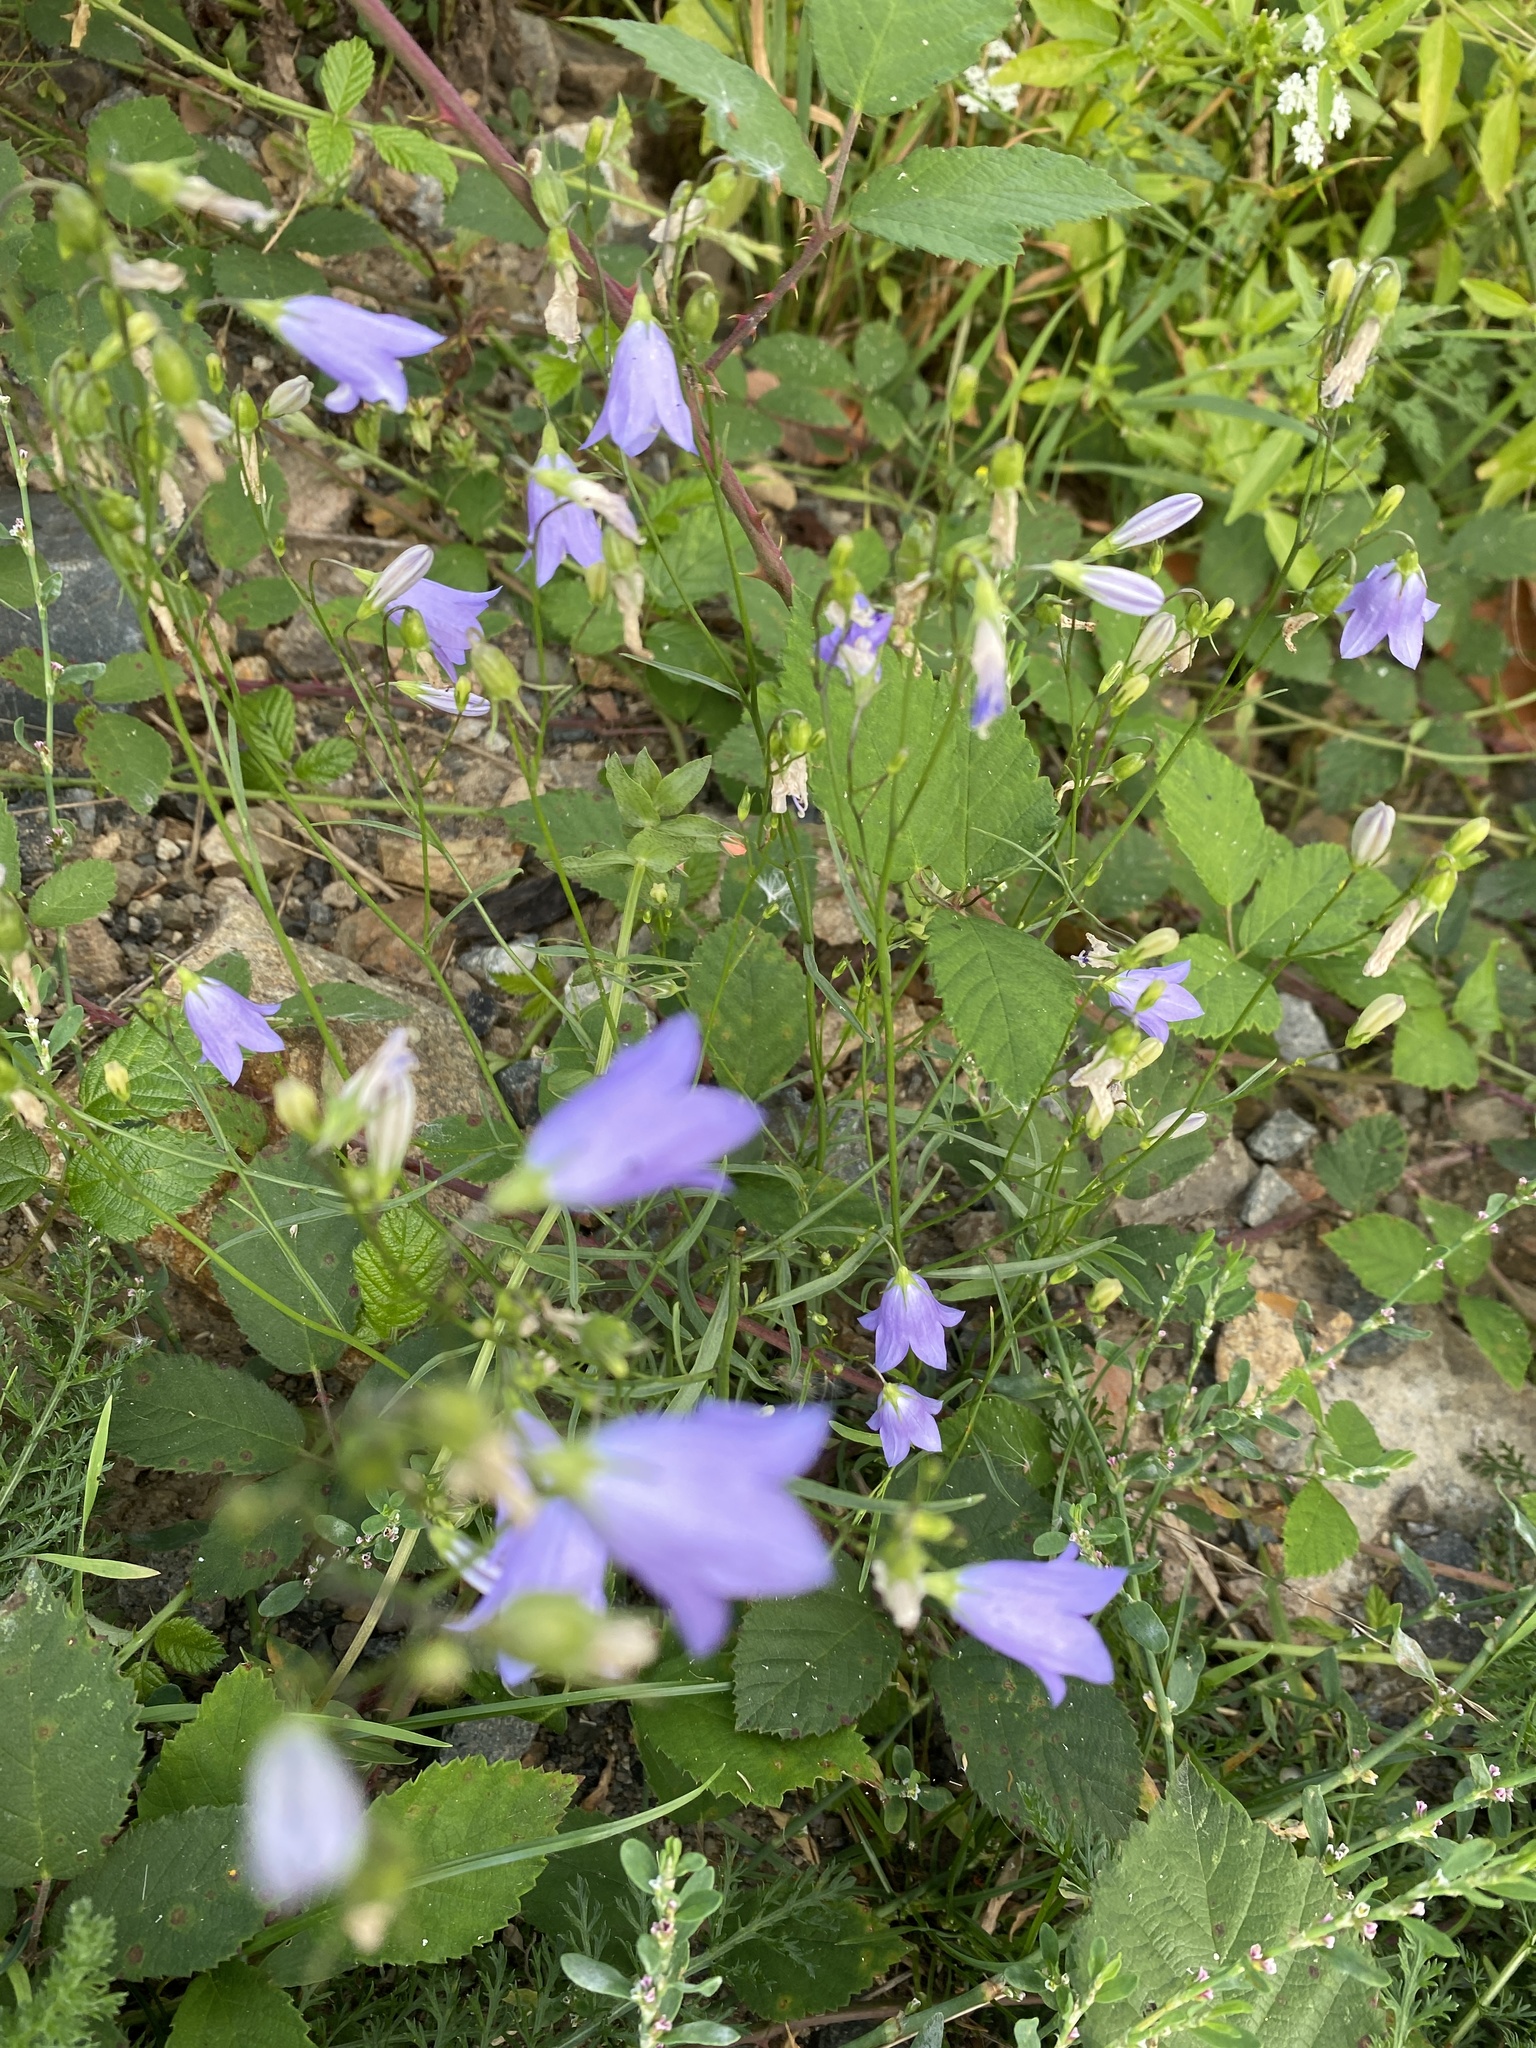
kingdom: Plantae
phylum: Tracheophyta
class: Magnoliopsida
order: Asterales
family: Campanulaceae
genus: Campanula
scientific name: Campanula rotundifolia
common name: Harebell
